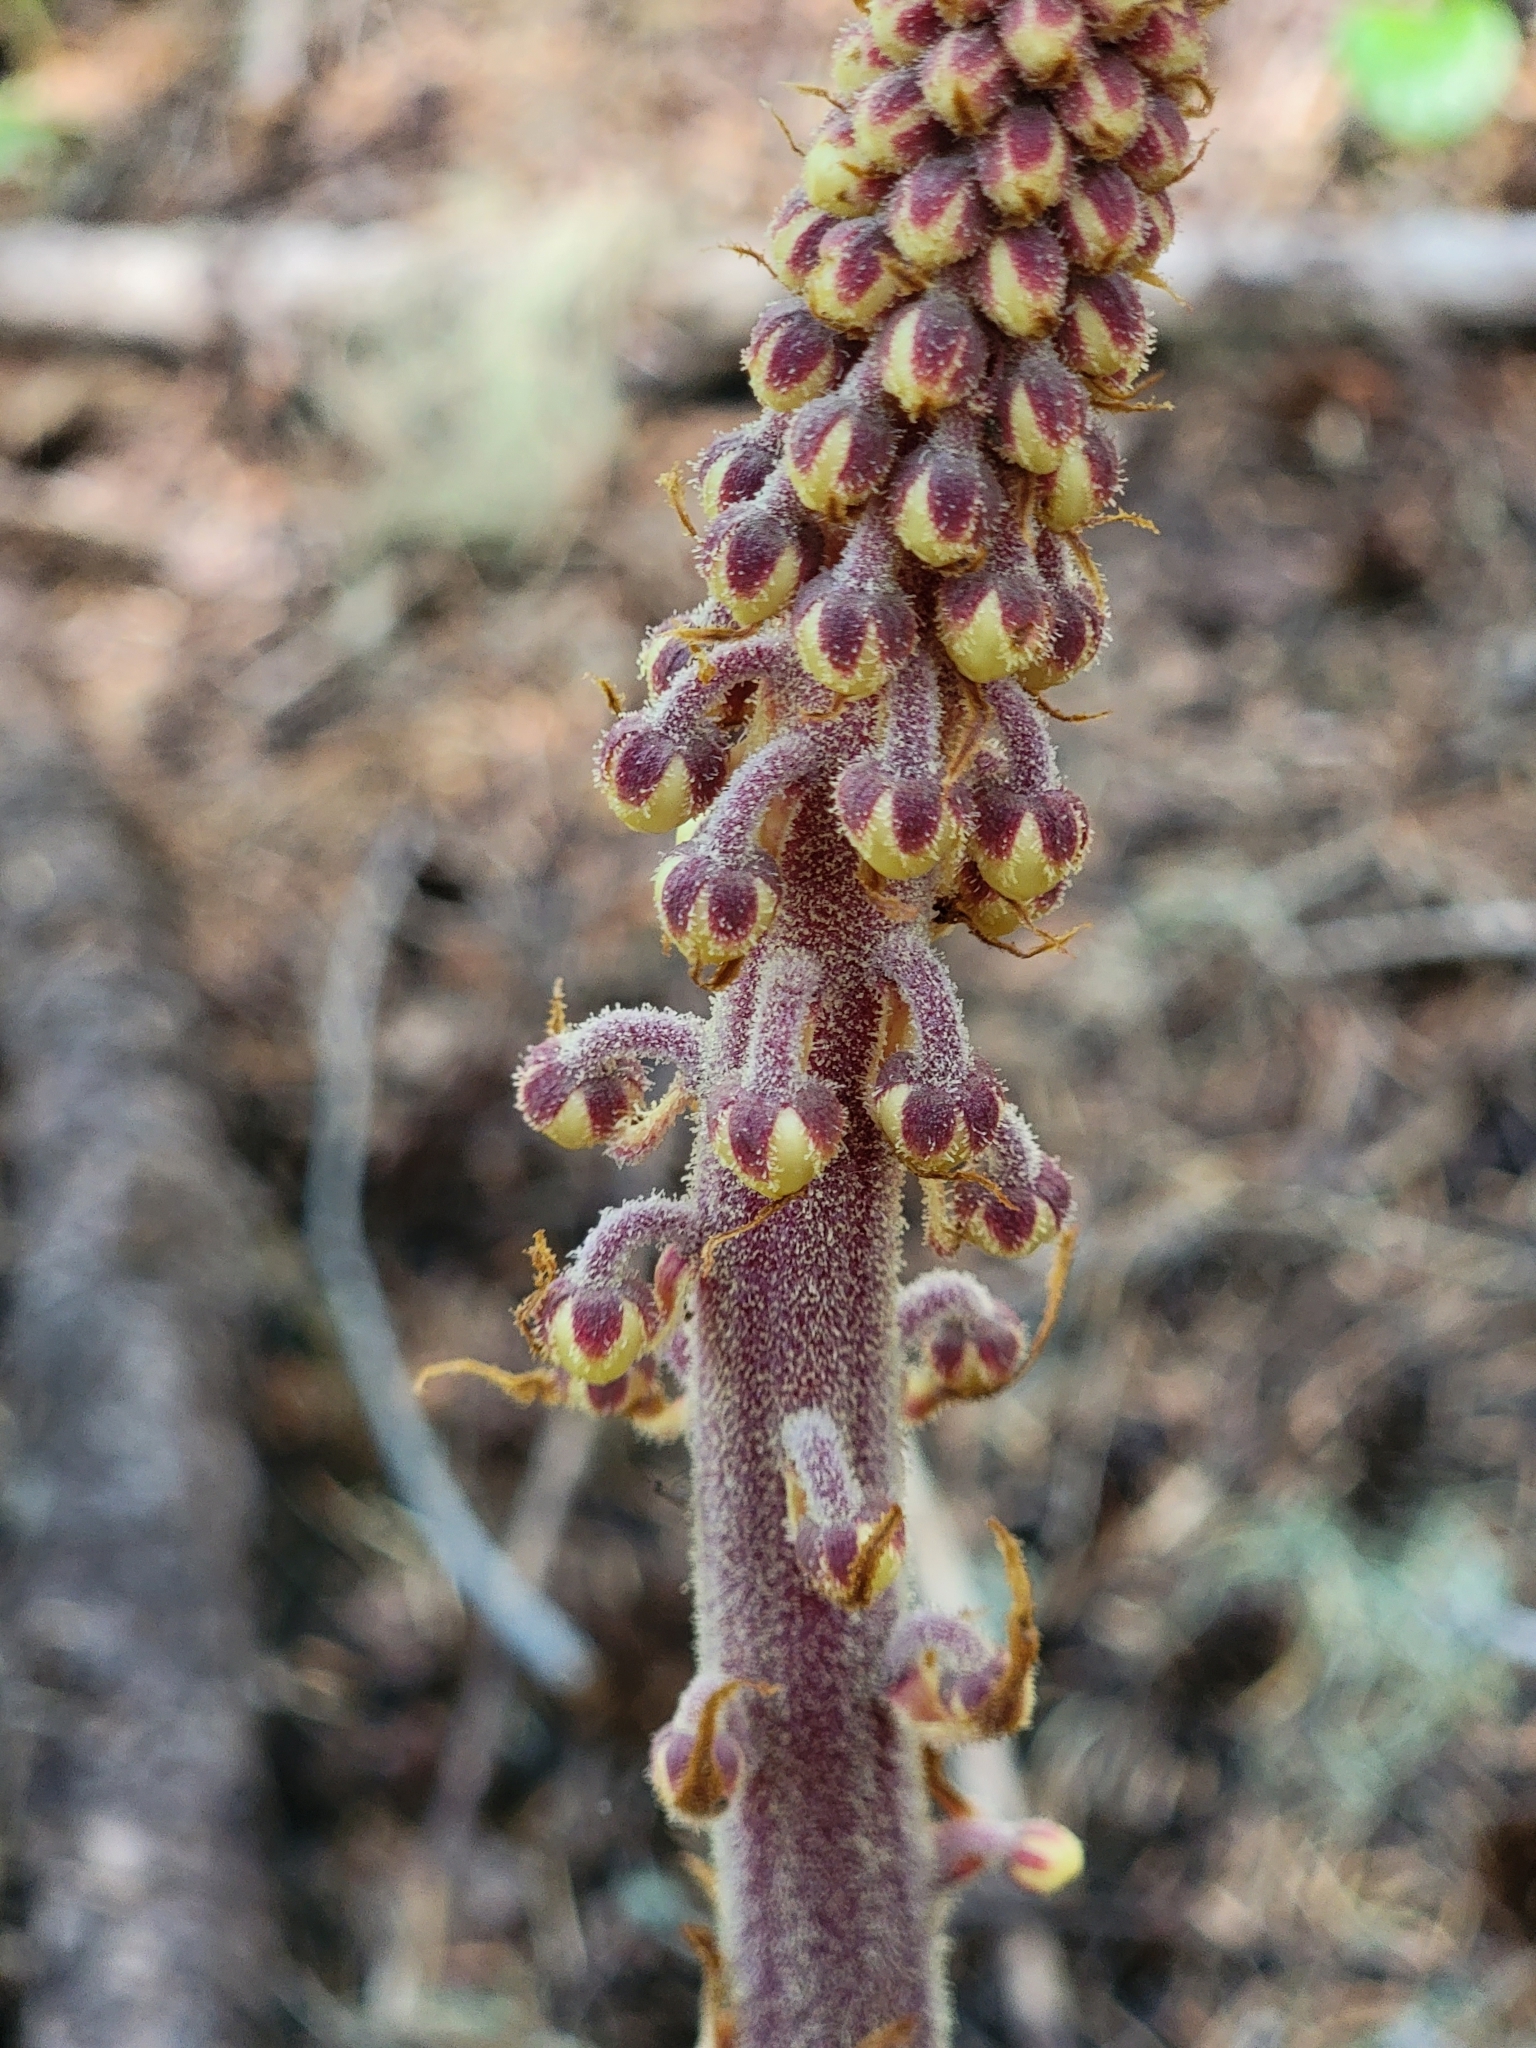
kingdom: Plantae
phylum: Tracheophyta
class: Magnoliopsida
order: Ericales
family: Ericaceae
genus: Pterospora
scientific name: Pterospora andromedea
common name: Giant bird's-nest
